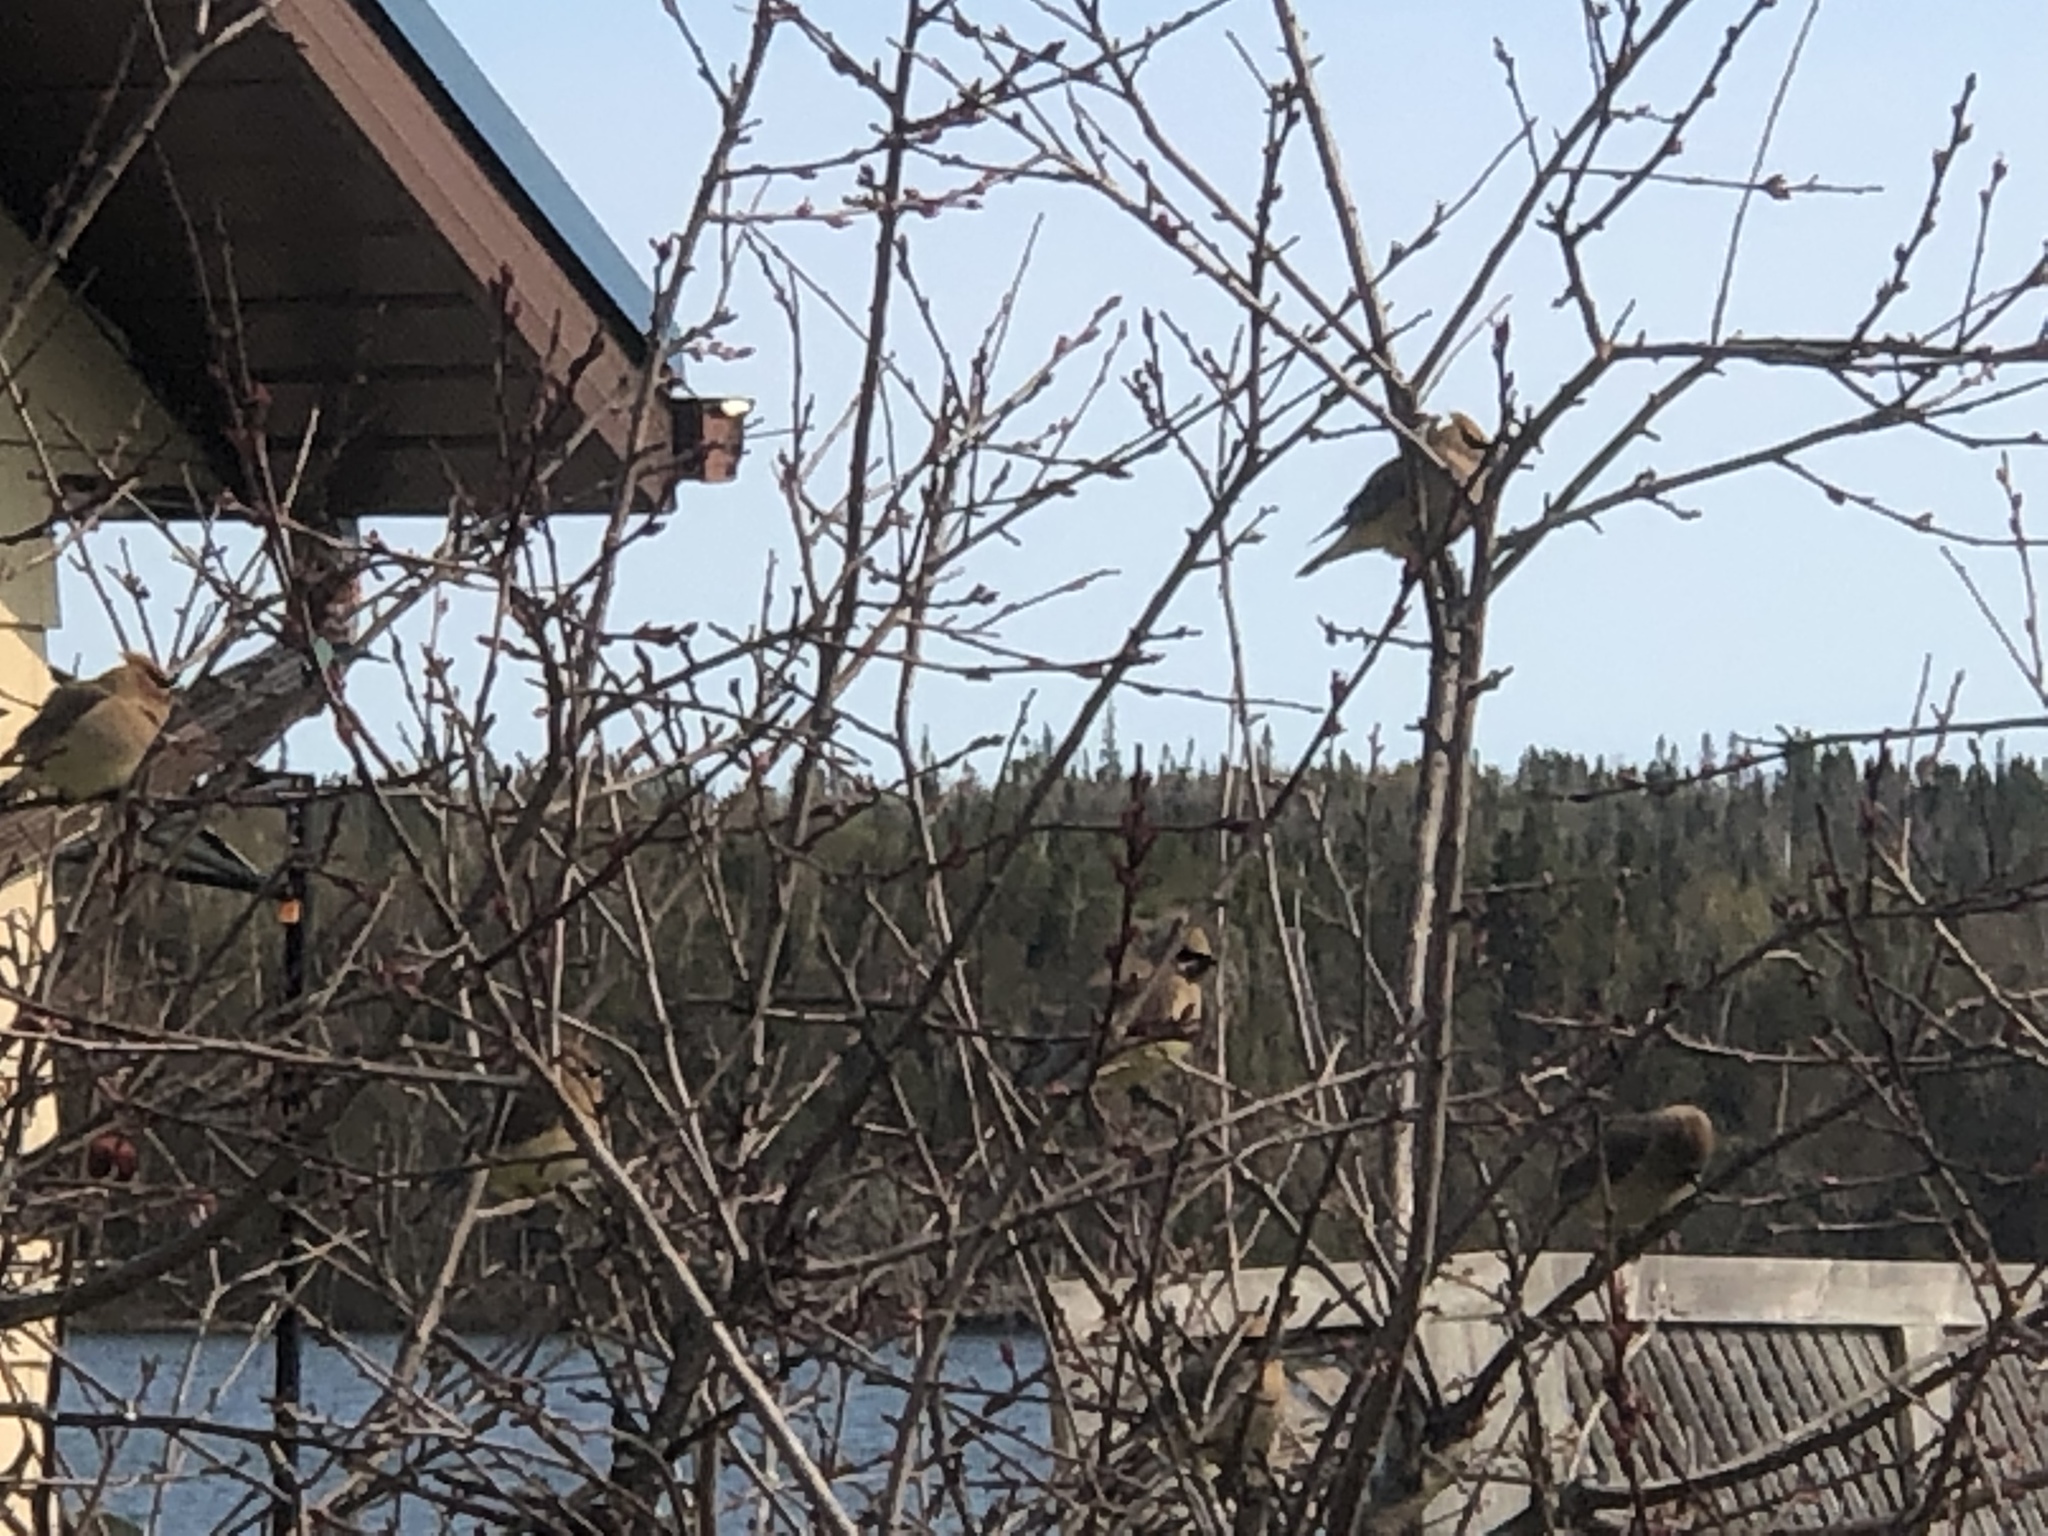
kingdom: Animalia
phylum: Chordata
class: Aves
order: Passeriformes
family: Bombycillidae
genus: Bombycilla
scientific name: Bombycilla cedrorum
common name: Cedar waxwing
